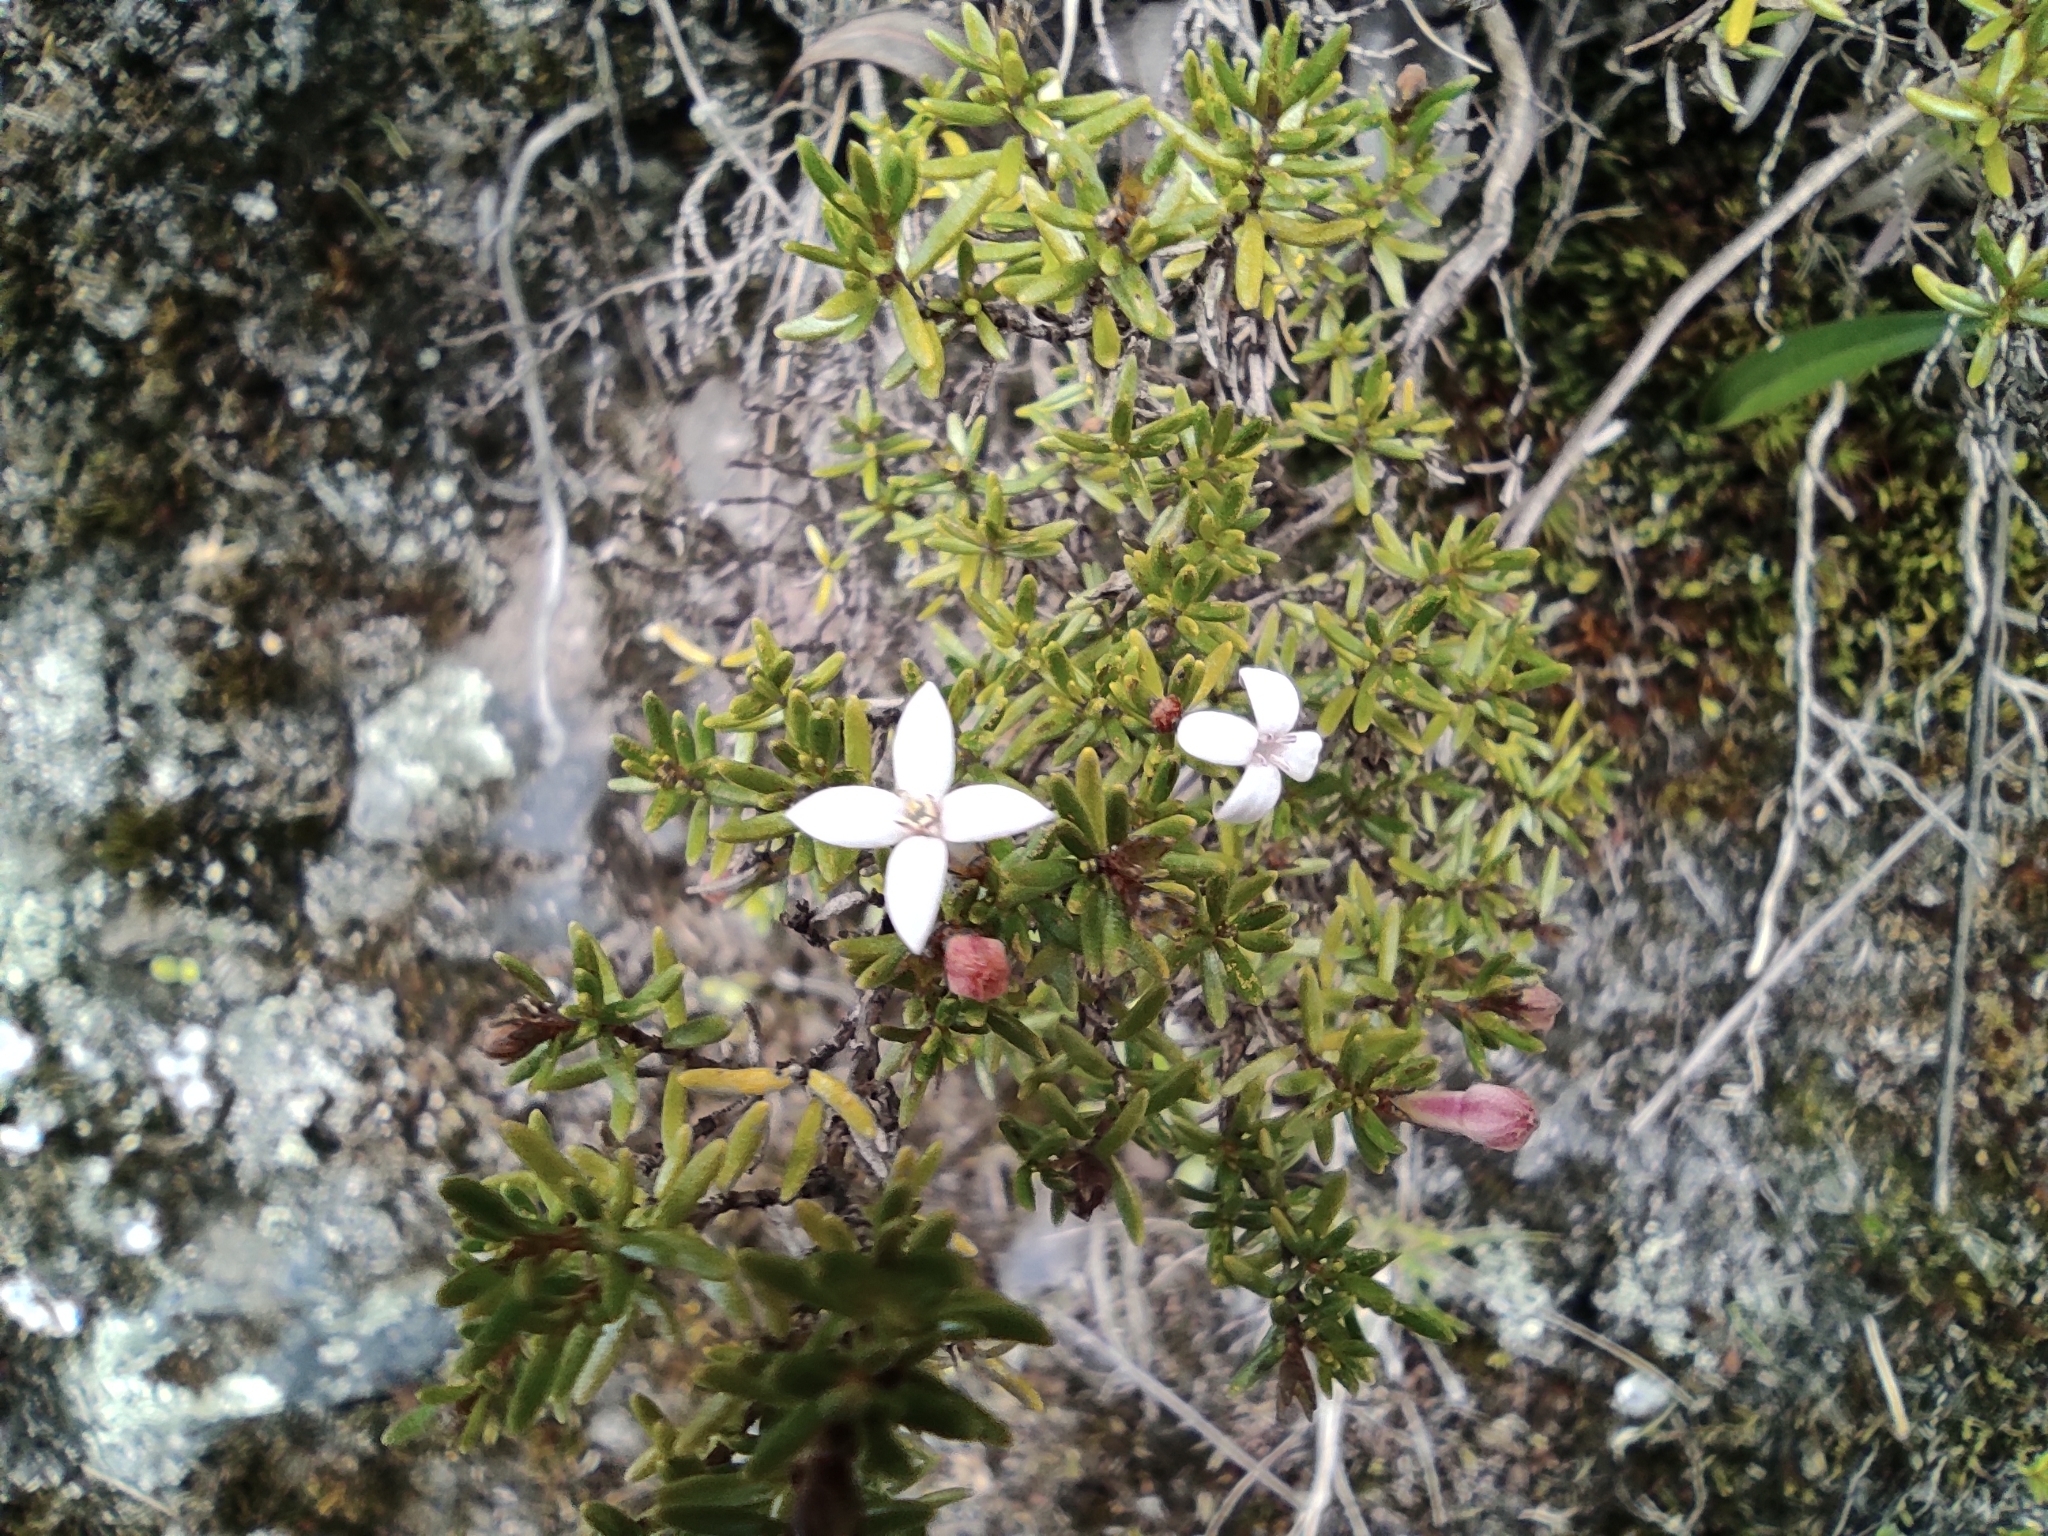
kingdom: Plantae
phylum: Tracheophyta
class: Magnoliopsida
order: Gentianales
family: Rubiaceae
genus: Arcytophyllum
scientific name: Arcytophyllum thymifolium
